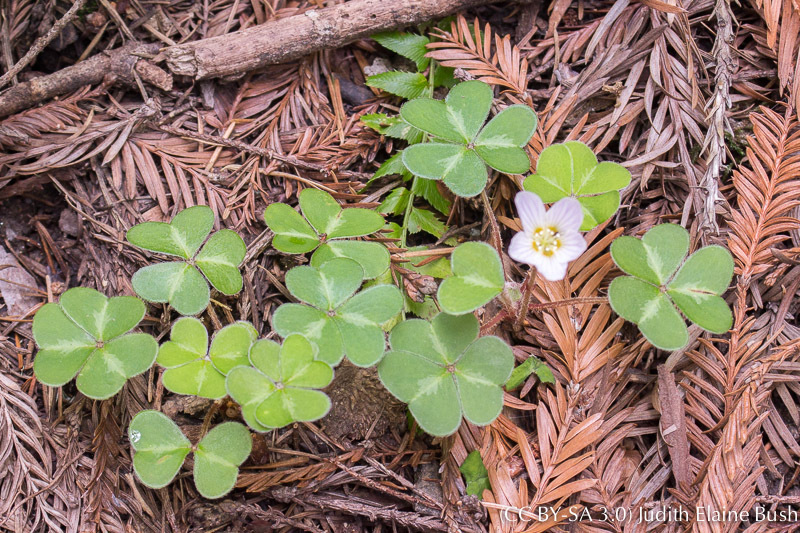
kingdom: Plantae
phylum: Tracheophyta
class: Magnoliopsida
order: Oxalidales
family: Oxalidaceae
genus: Oxalis
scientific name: Oxalis oregana
